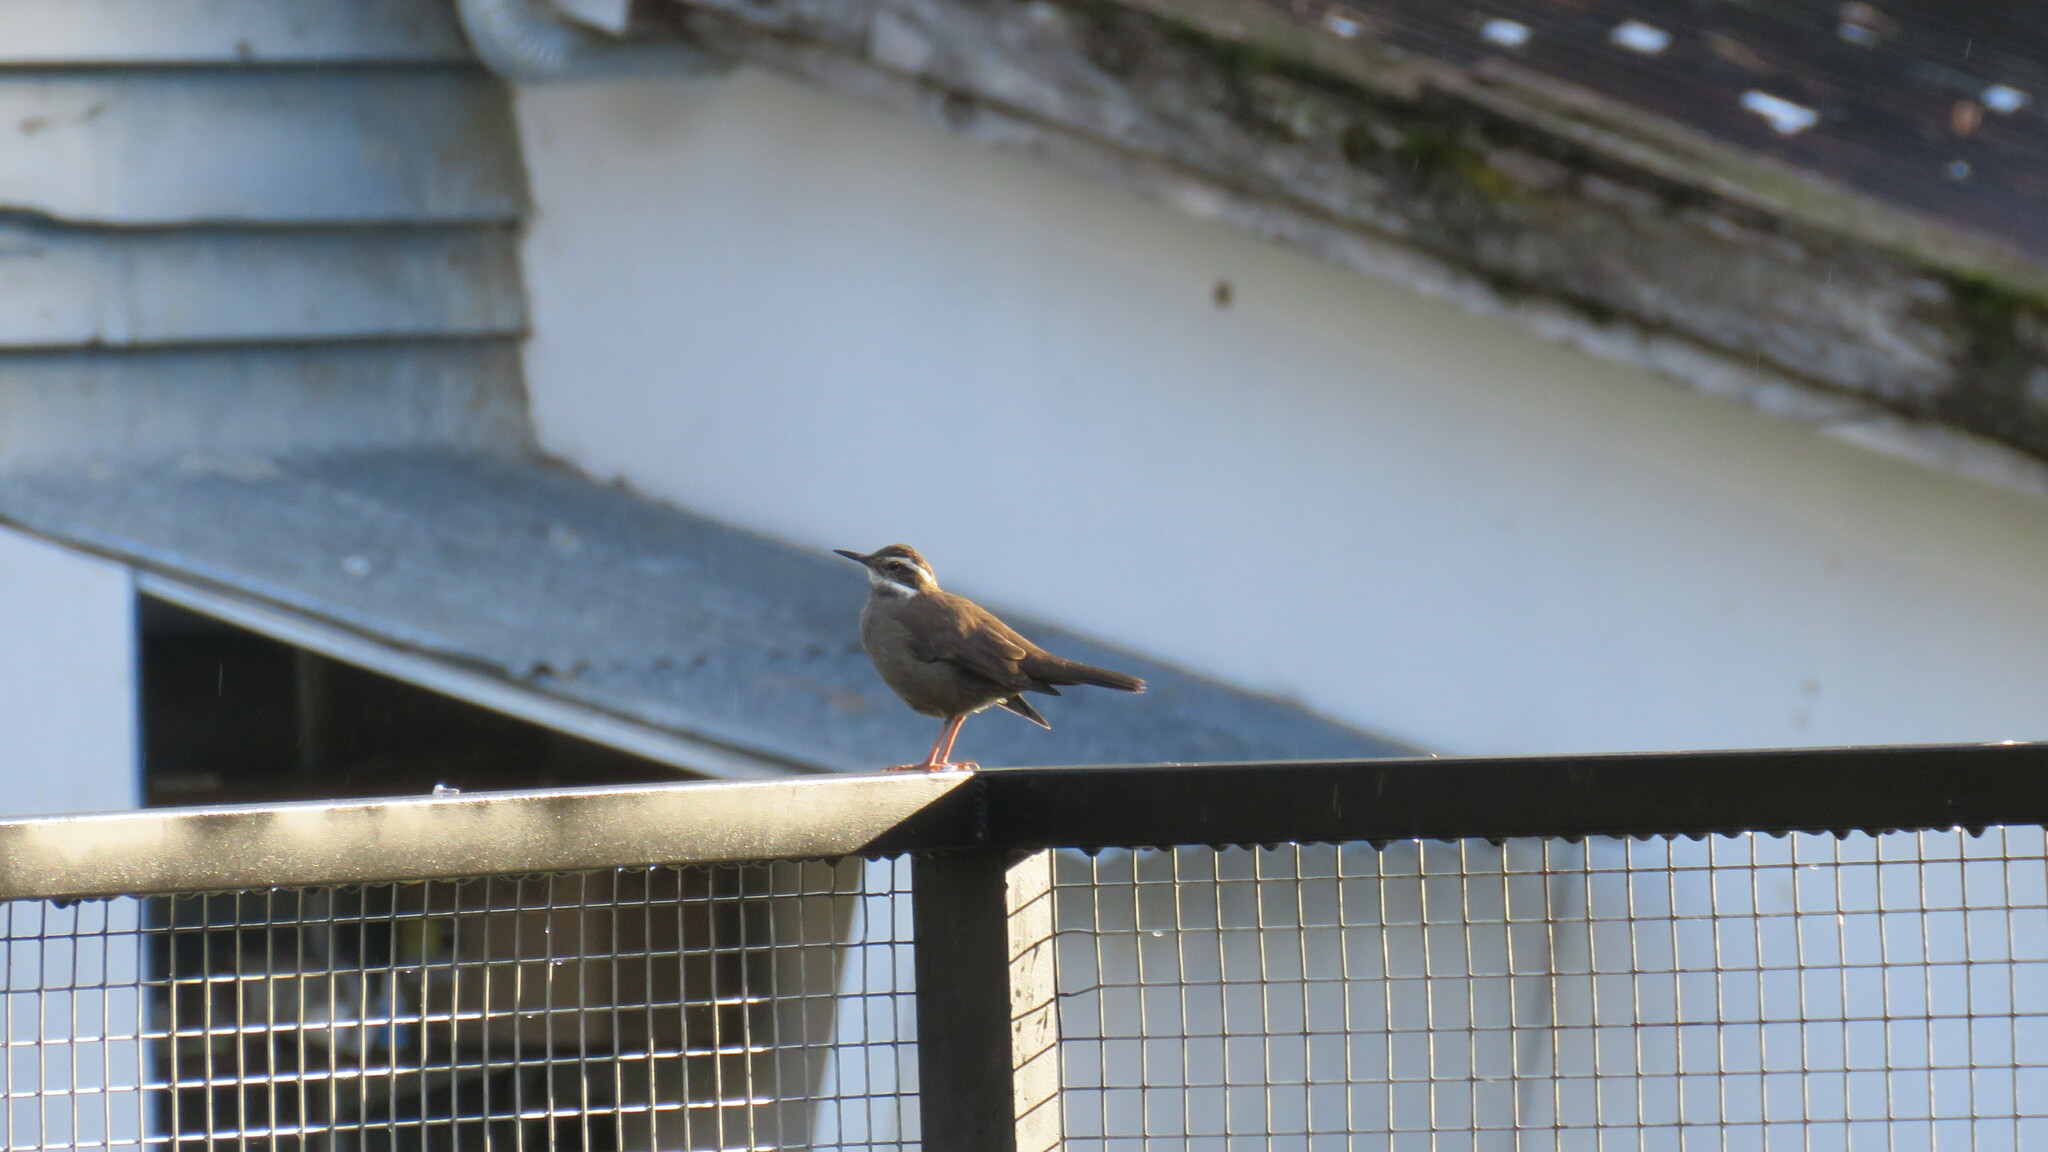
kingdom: Animalia
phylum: Chordata
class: Aves
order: Passeriformes
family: Furnariidae
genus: Cinclodes
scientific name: Cinclodes patagonicus
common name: Dark-bellied cinclodes
